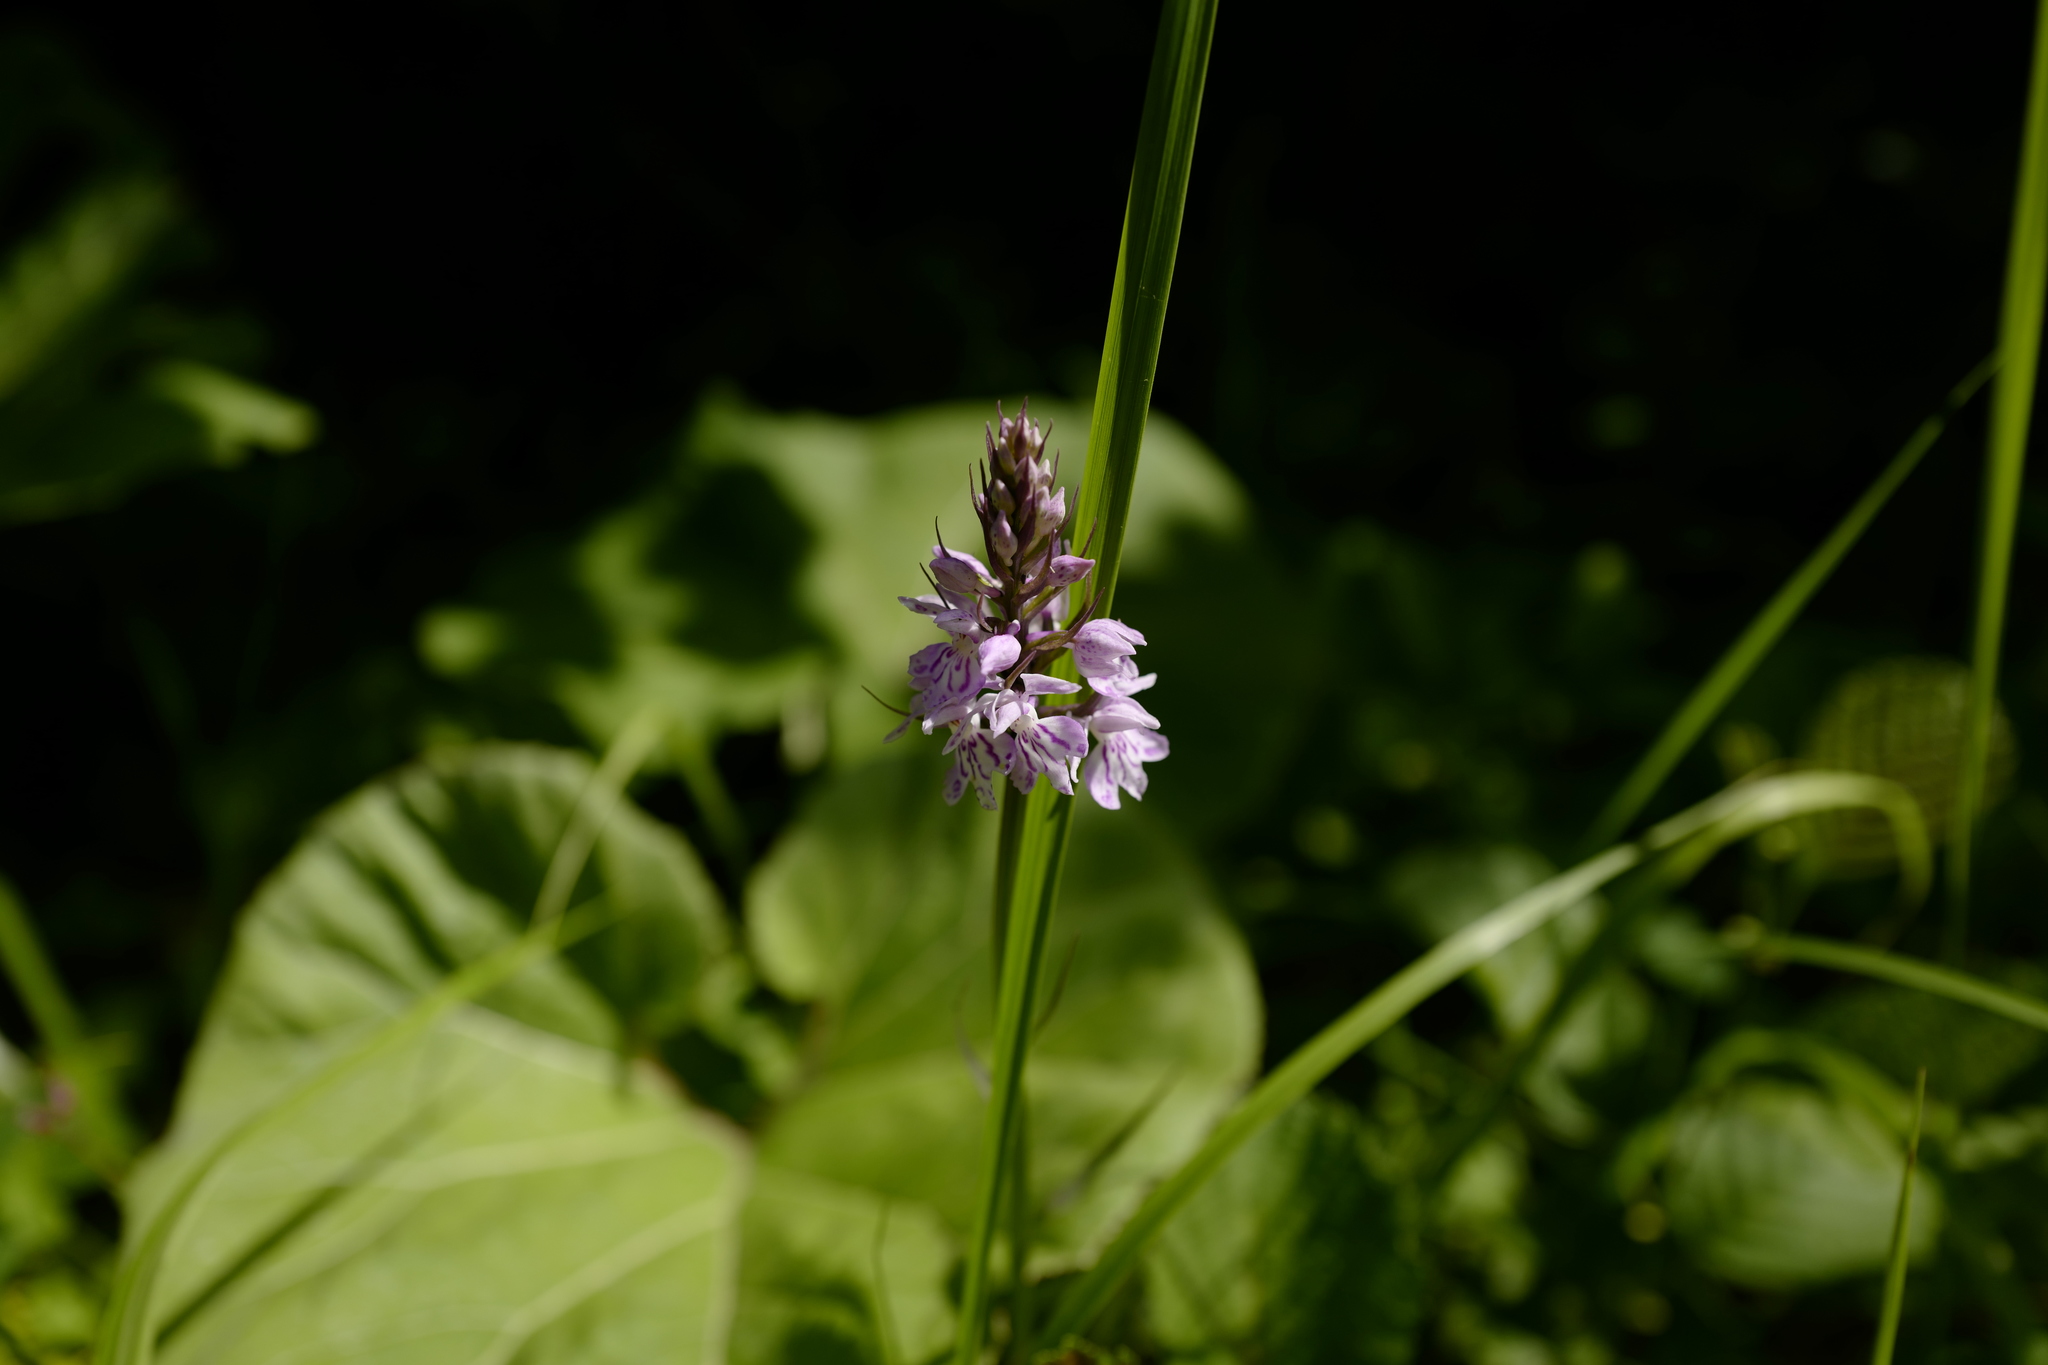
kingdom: Plantae
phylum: Tracheophyta
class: Liliopsida
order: Asparagales
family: Orchidaceae
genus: Dactylorhiza
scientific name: Dactylorhiza maculata
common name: Heath spotted-orchid
